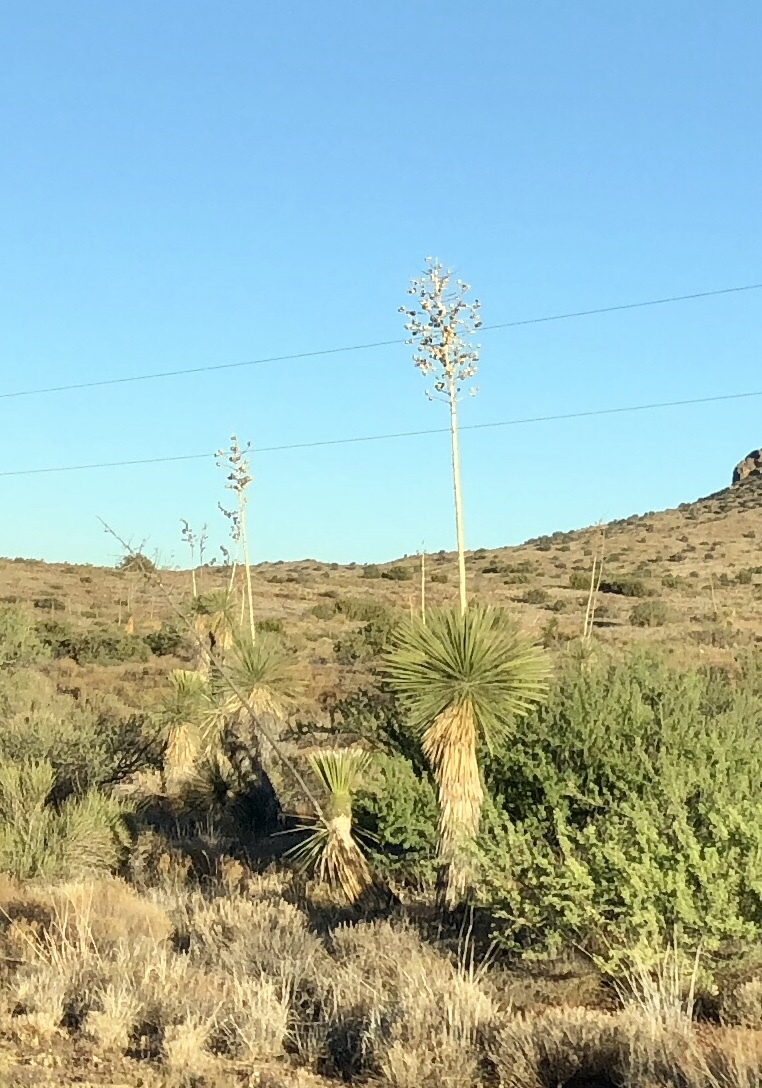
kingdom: Plantae
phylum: Tracheophyta
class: Liliopsida
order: Asparagales
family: Asparagaceae
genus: Yucca
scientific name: Yucca elata
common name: Palmella
